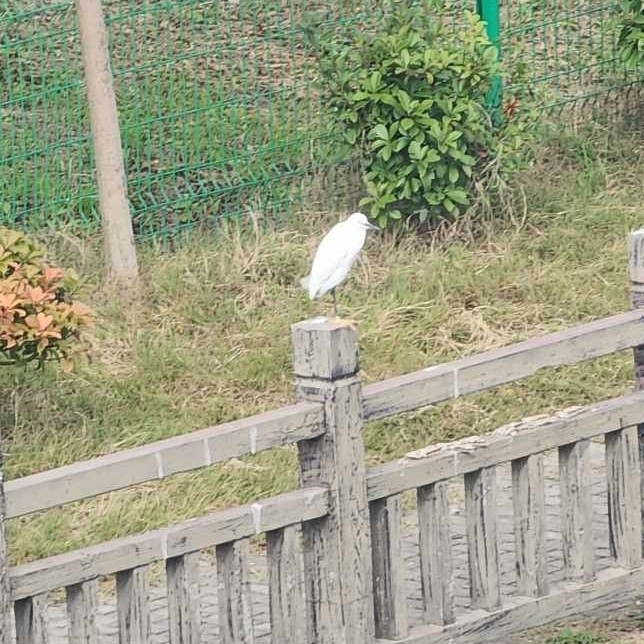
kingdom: Animalia
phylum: Chordata
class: Aves
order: Pelecaniformes
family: Ardeidae
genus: Egretta
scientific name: Egretta garzetta
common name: Little egret
